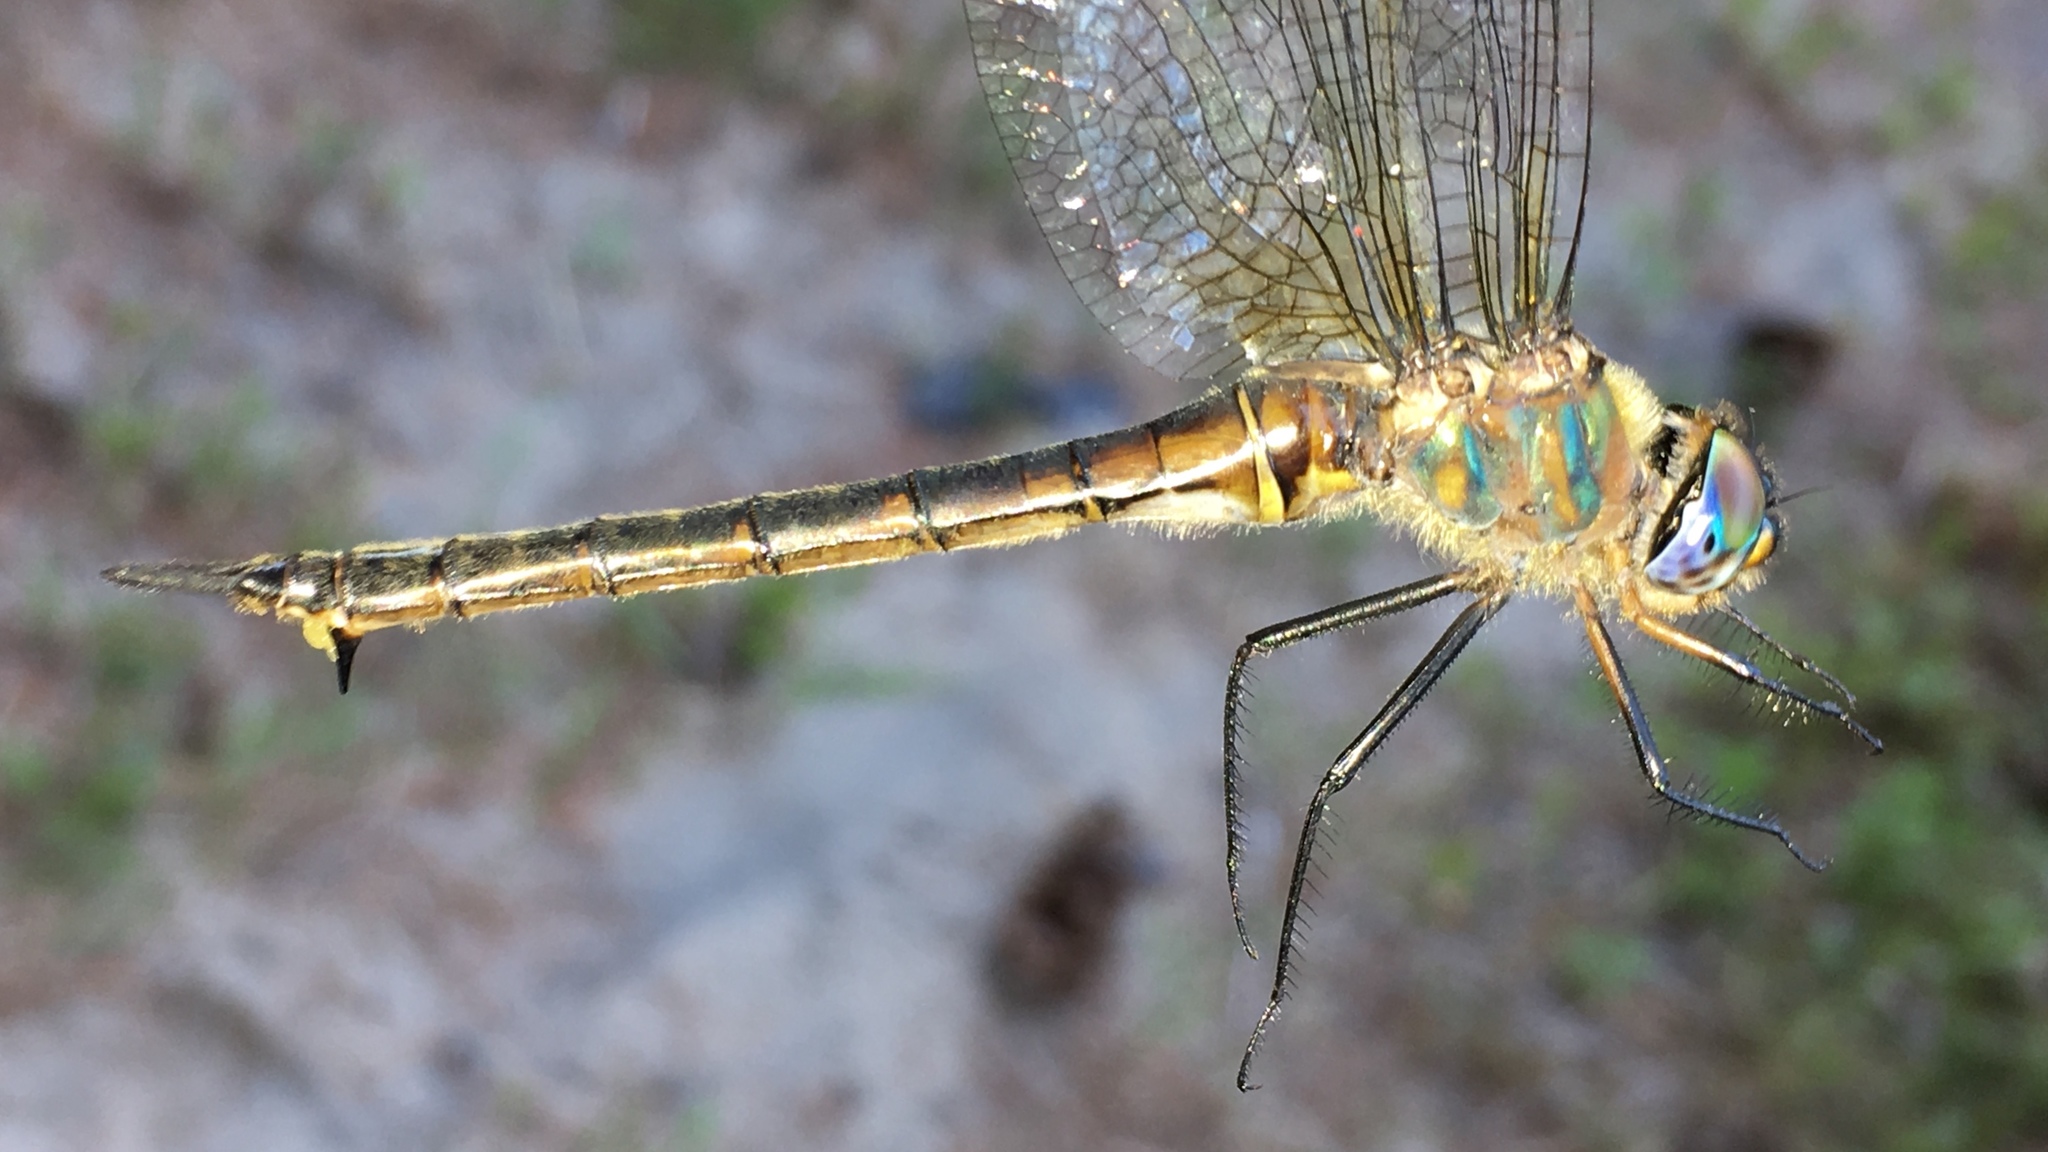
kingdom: Animalia
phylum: Arthropoda
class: Insecta
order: Odonata
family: Corduliidae
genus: Somatochlora
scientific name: Somatochlora williamsoni
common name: Williamson's emerald
